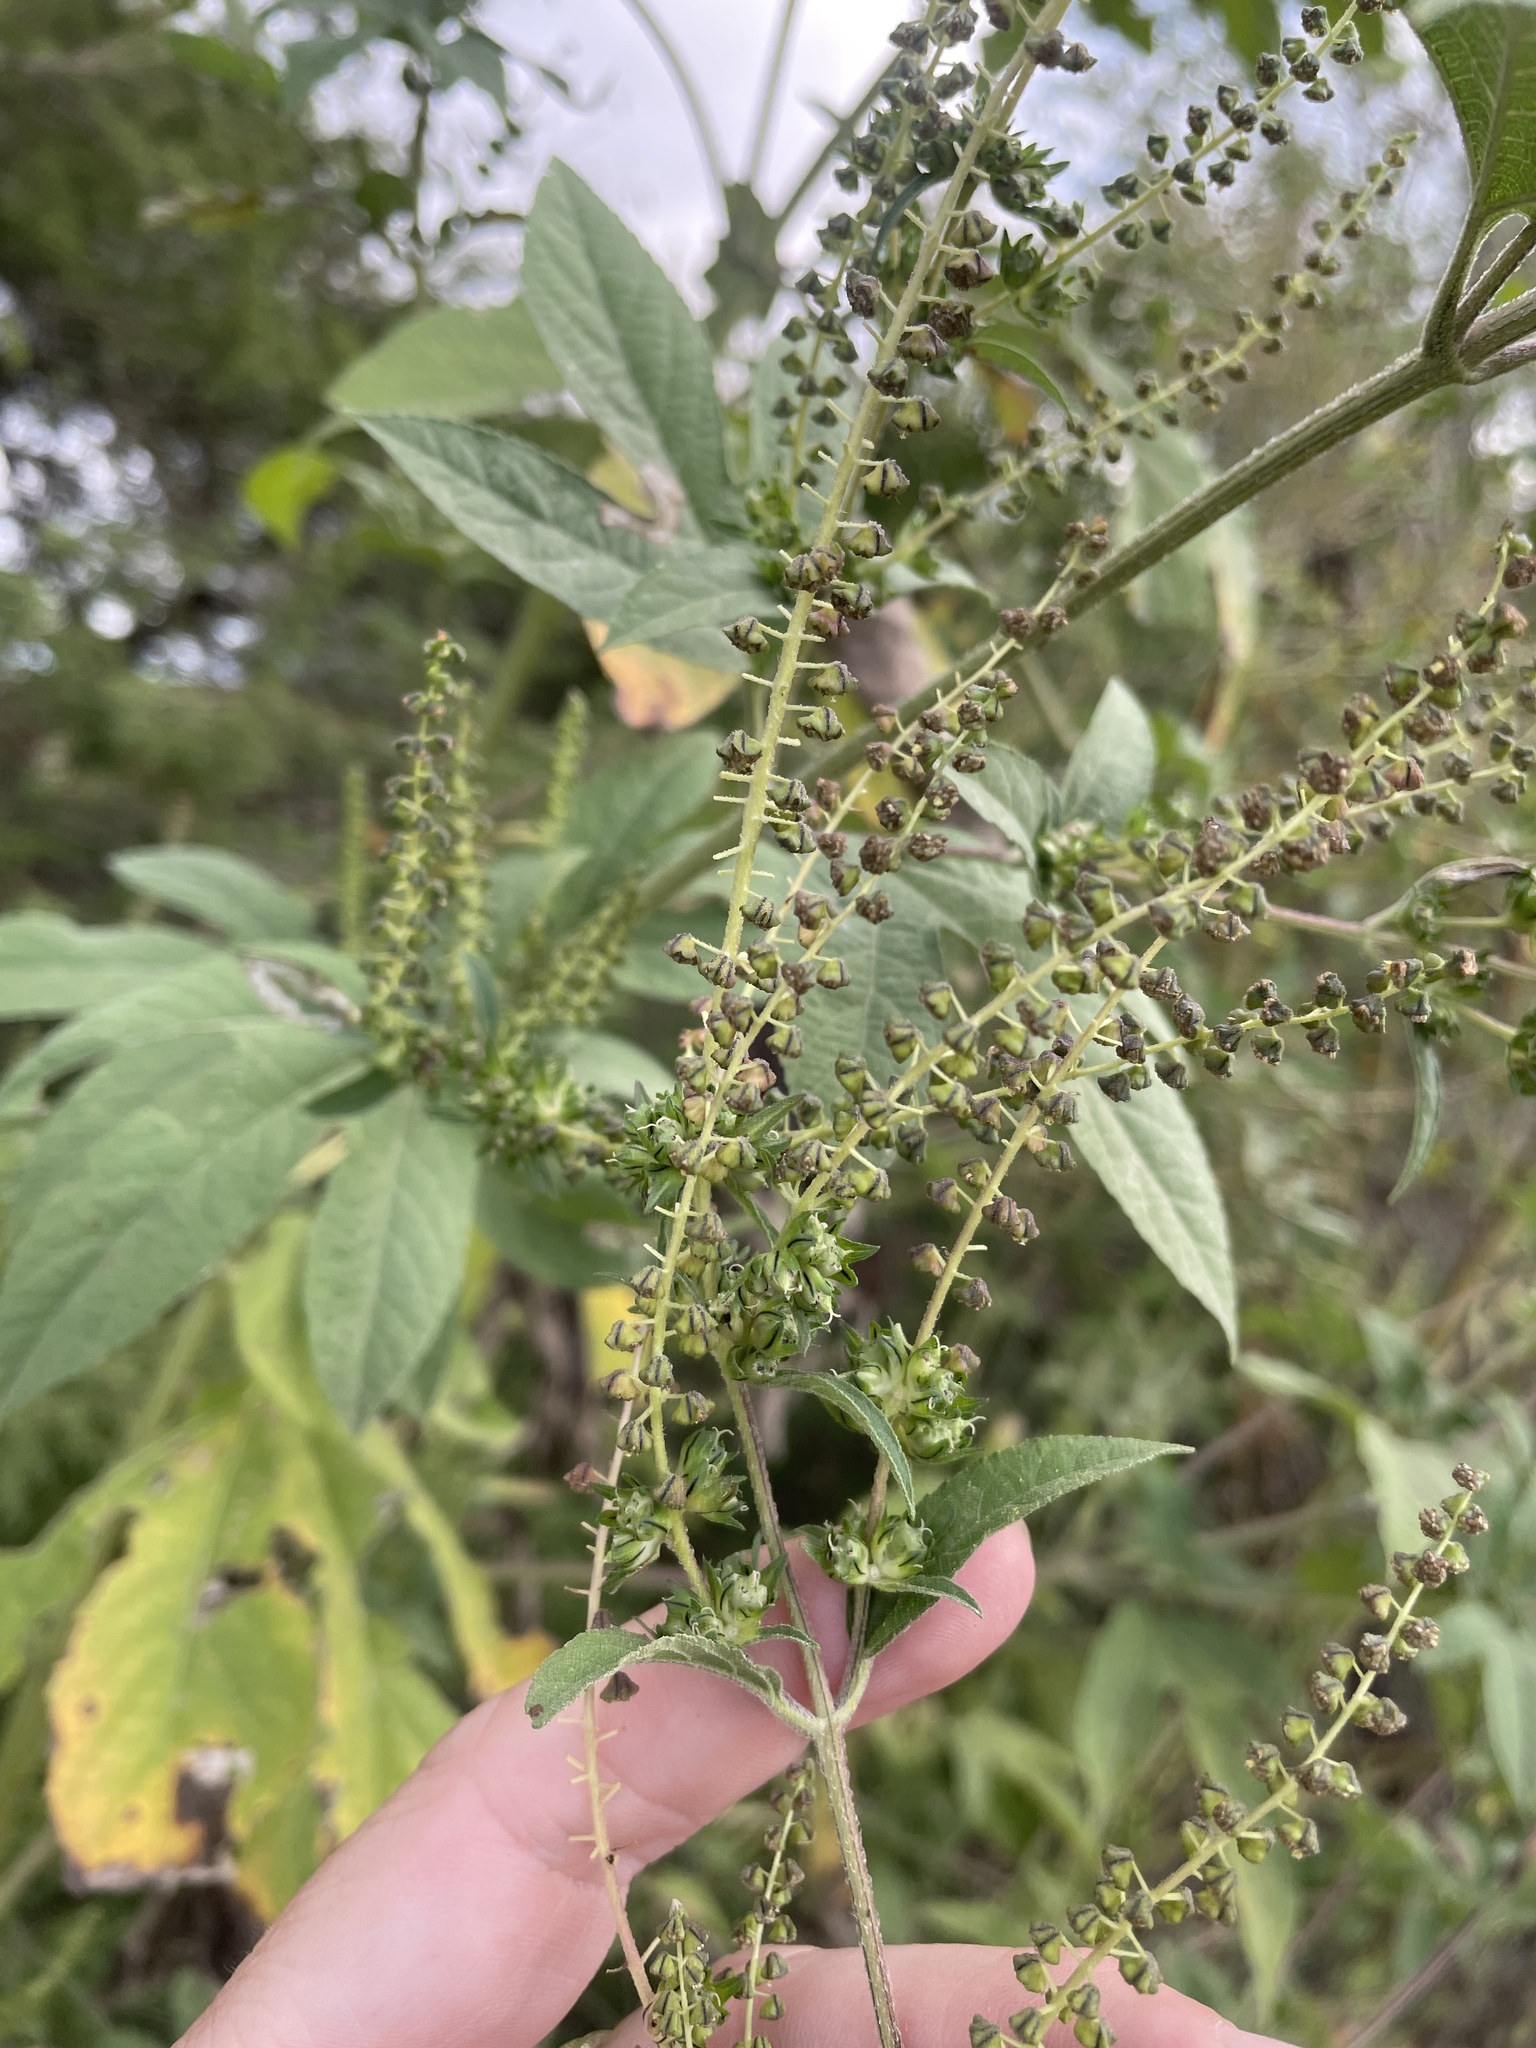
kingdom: Plantae
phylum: Tracheophyta
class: Magnoliopsida
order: Asterales
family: Asteraceae
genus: Ambrosia
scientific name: Ambrosia trifida
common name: Giant ragweed
